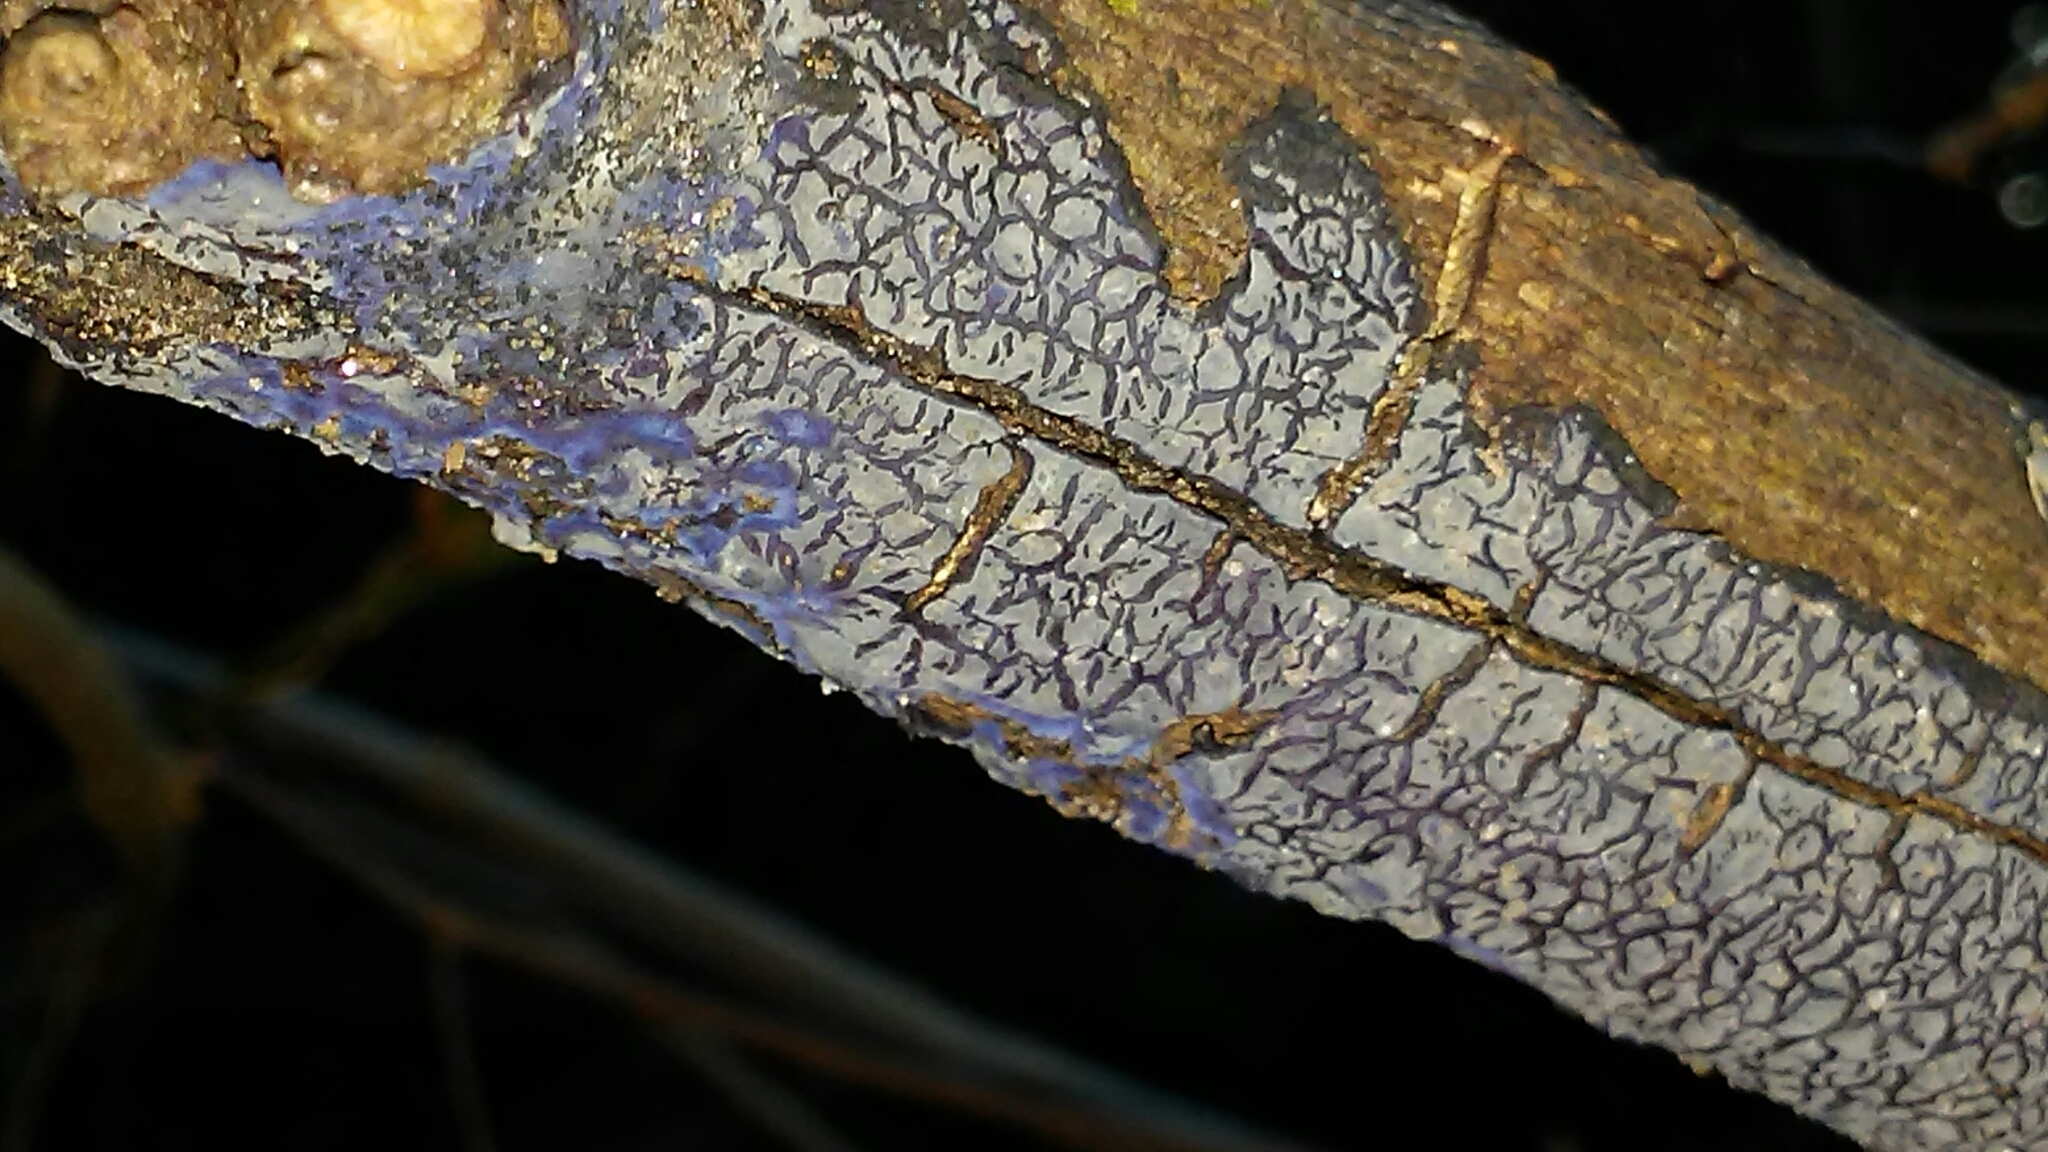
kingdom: Fungi
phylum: Basidiomycota
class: Agaricomycetes
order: Polyporales
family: Phanerochaetaceae
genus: Terana
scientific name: Terana coerulea
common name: Cobalt crust
